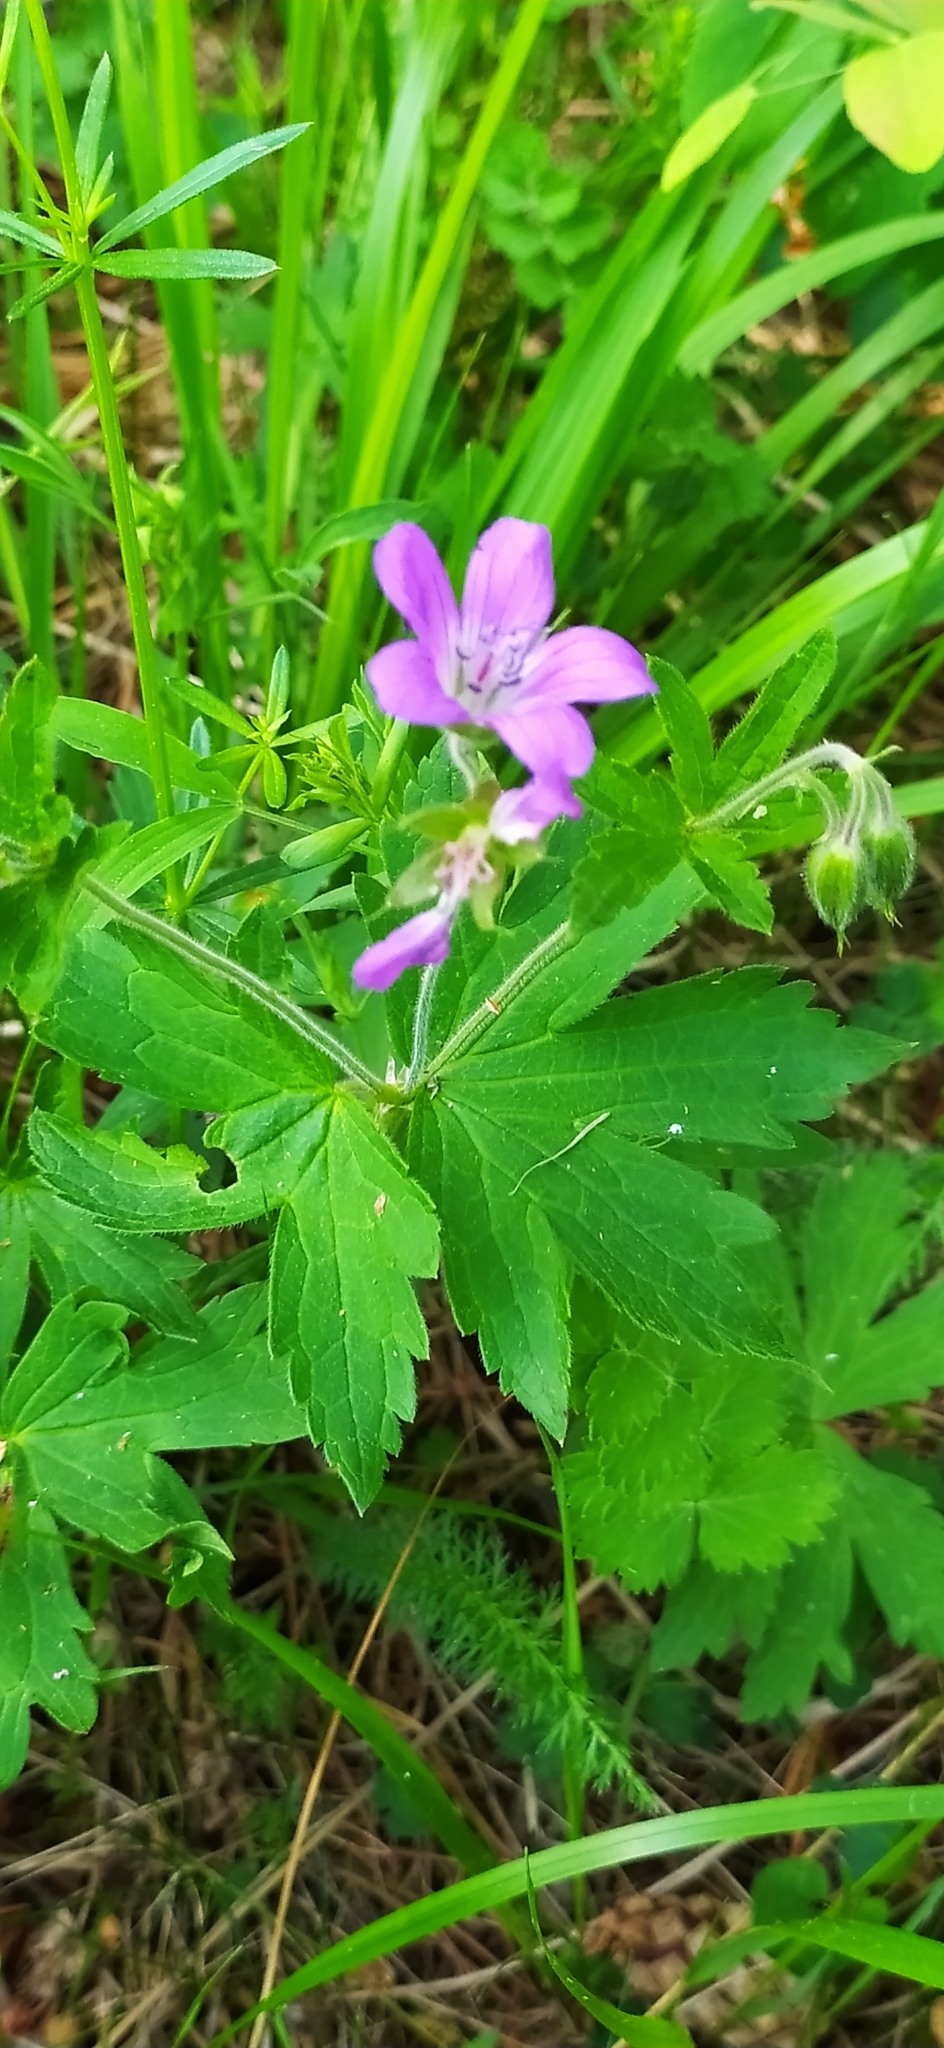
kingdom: Plantae
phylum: Tracheophyta
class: Magnoliopsida
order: Geraniales
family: Geraniaceae
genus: Geranium
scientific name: Geranium sylvaticum
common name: Wood crane's-bill
